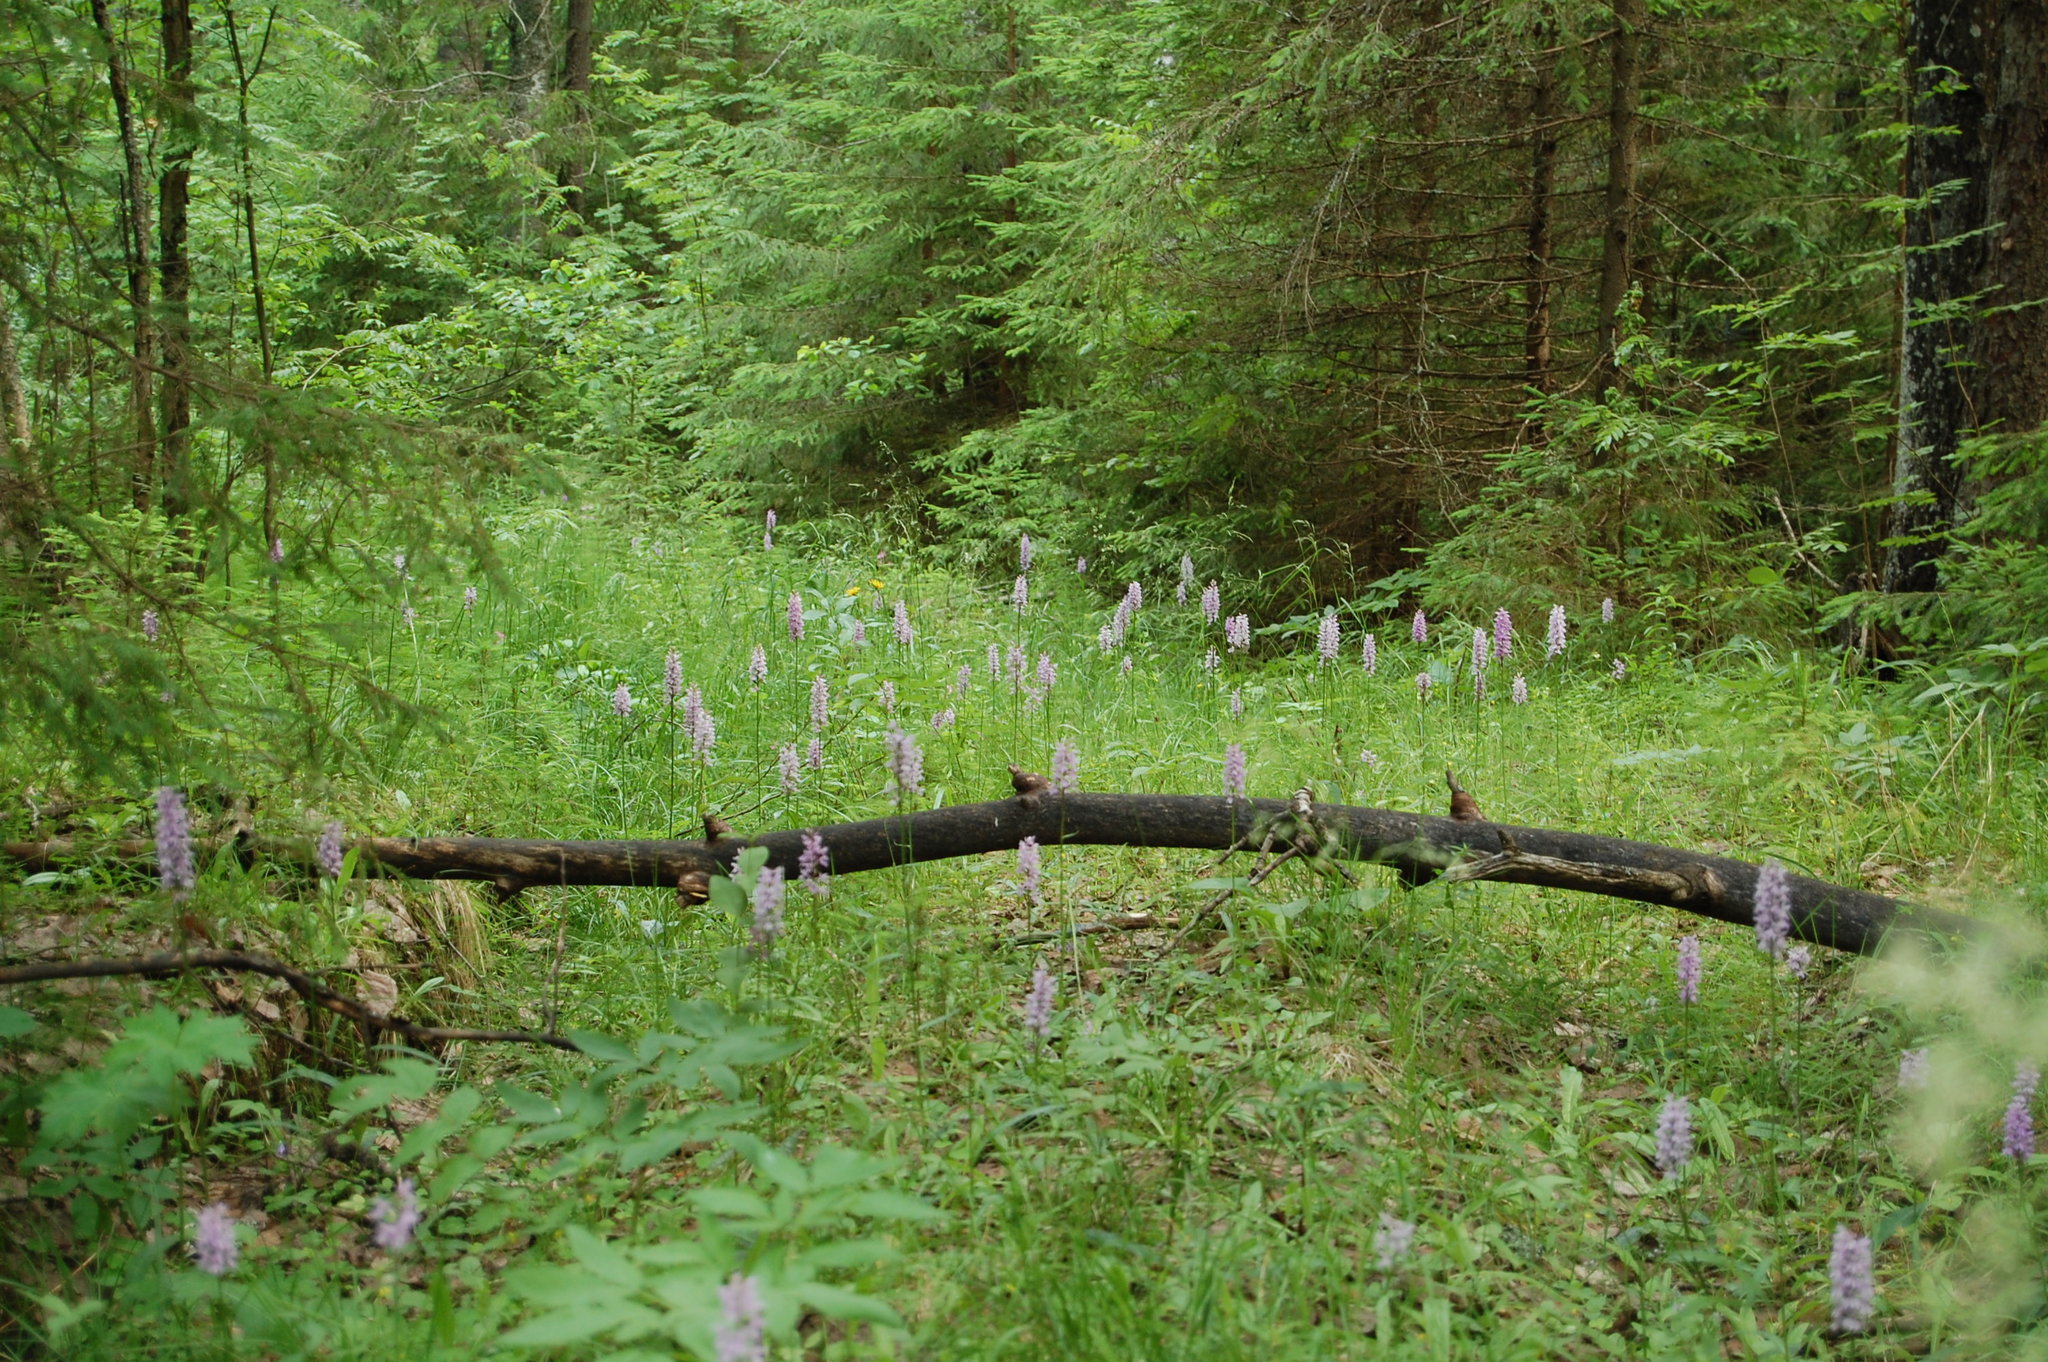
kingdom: Plantae
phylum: Tracheophyta
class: Liliopsida
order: Asparagales
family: Orchidaceae
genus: Dactylorhiza
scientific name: Dactylorhiza maculata
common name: Heath spotted-orchid
